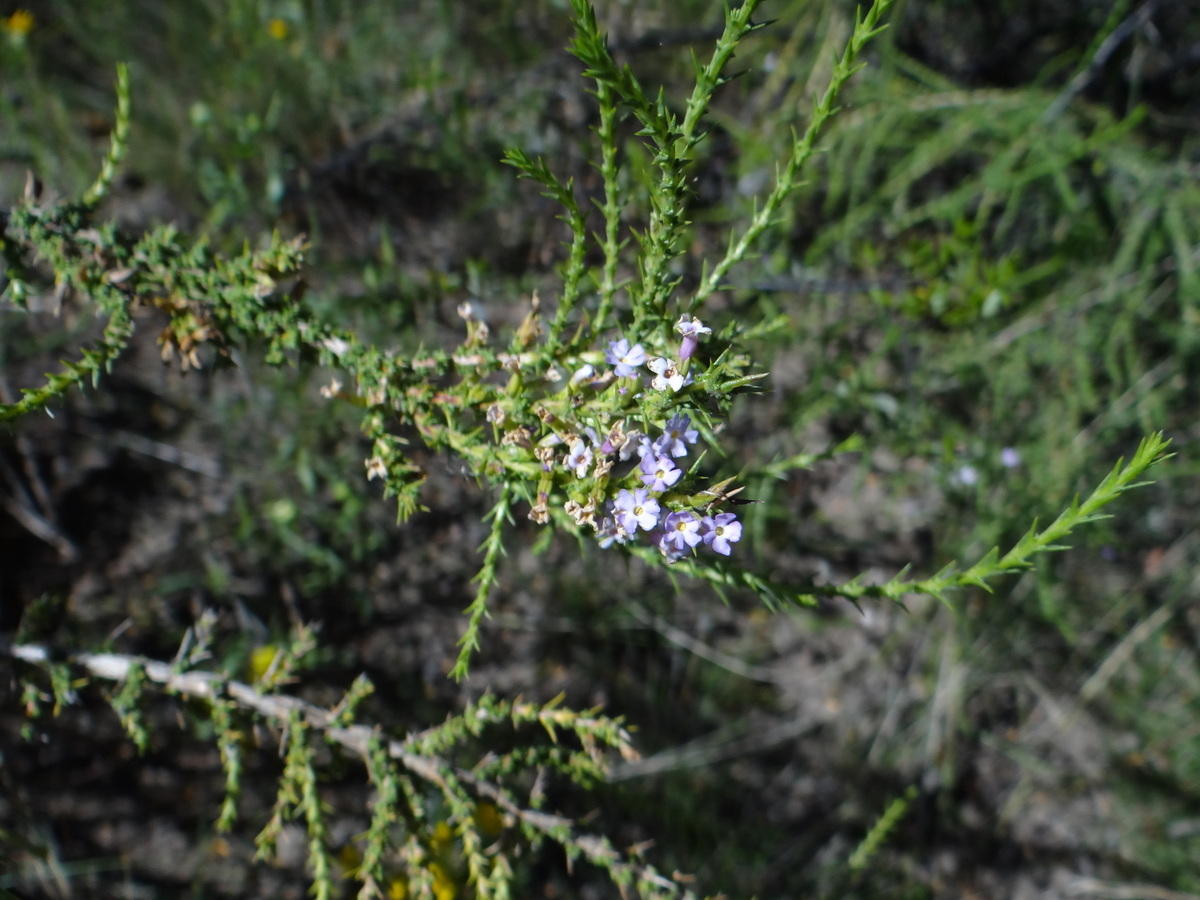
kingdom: Plantae
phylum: Tracheophyta
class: Magnoliopsida
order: Lamiales
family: Verbenaceae
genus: Junellia
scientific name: Junellia seriphioides
